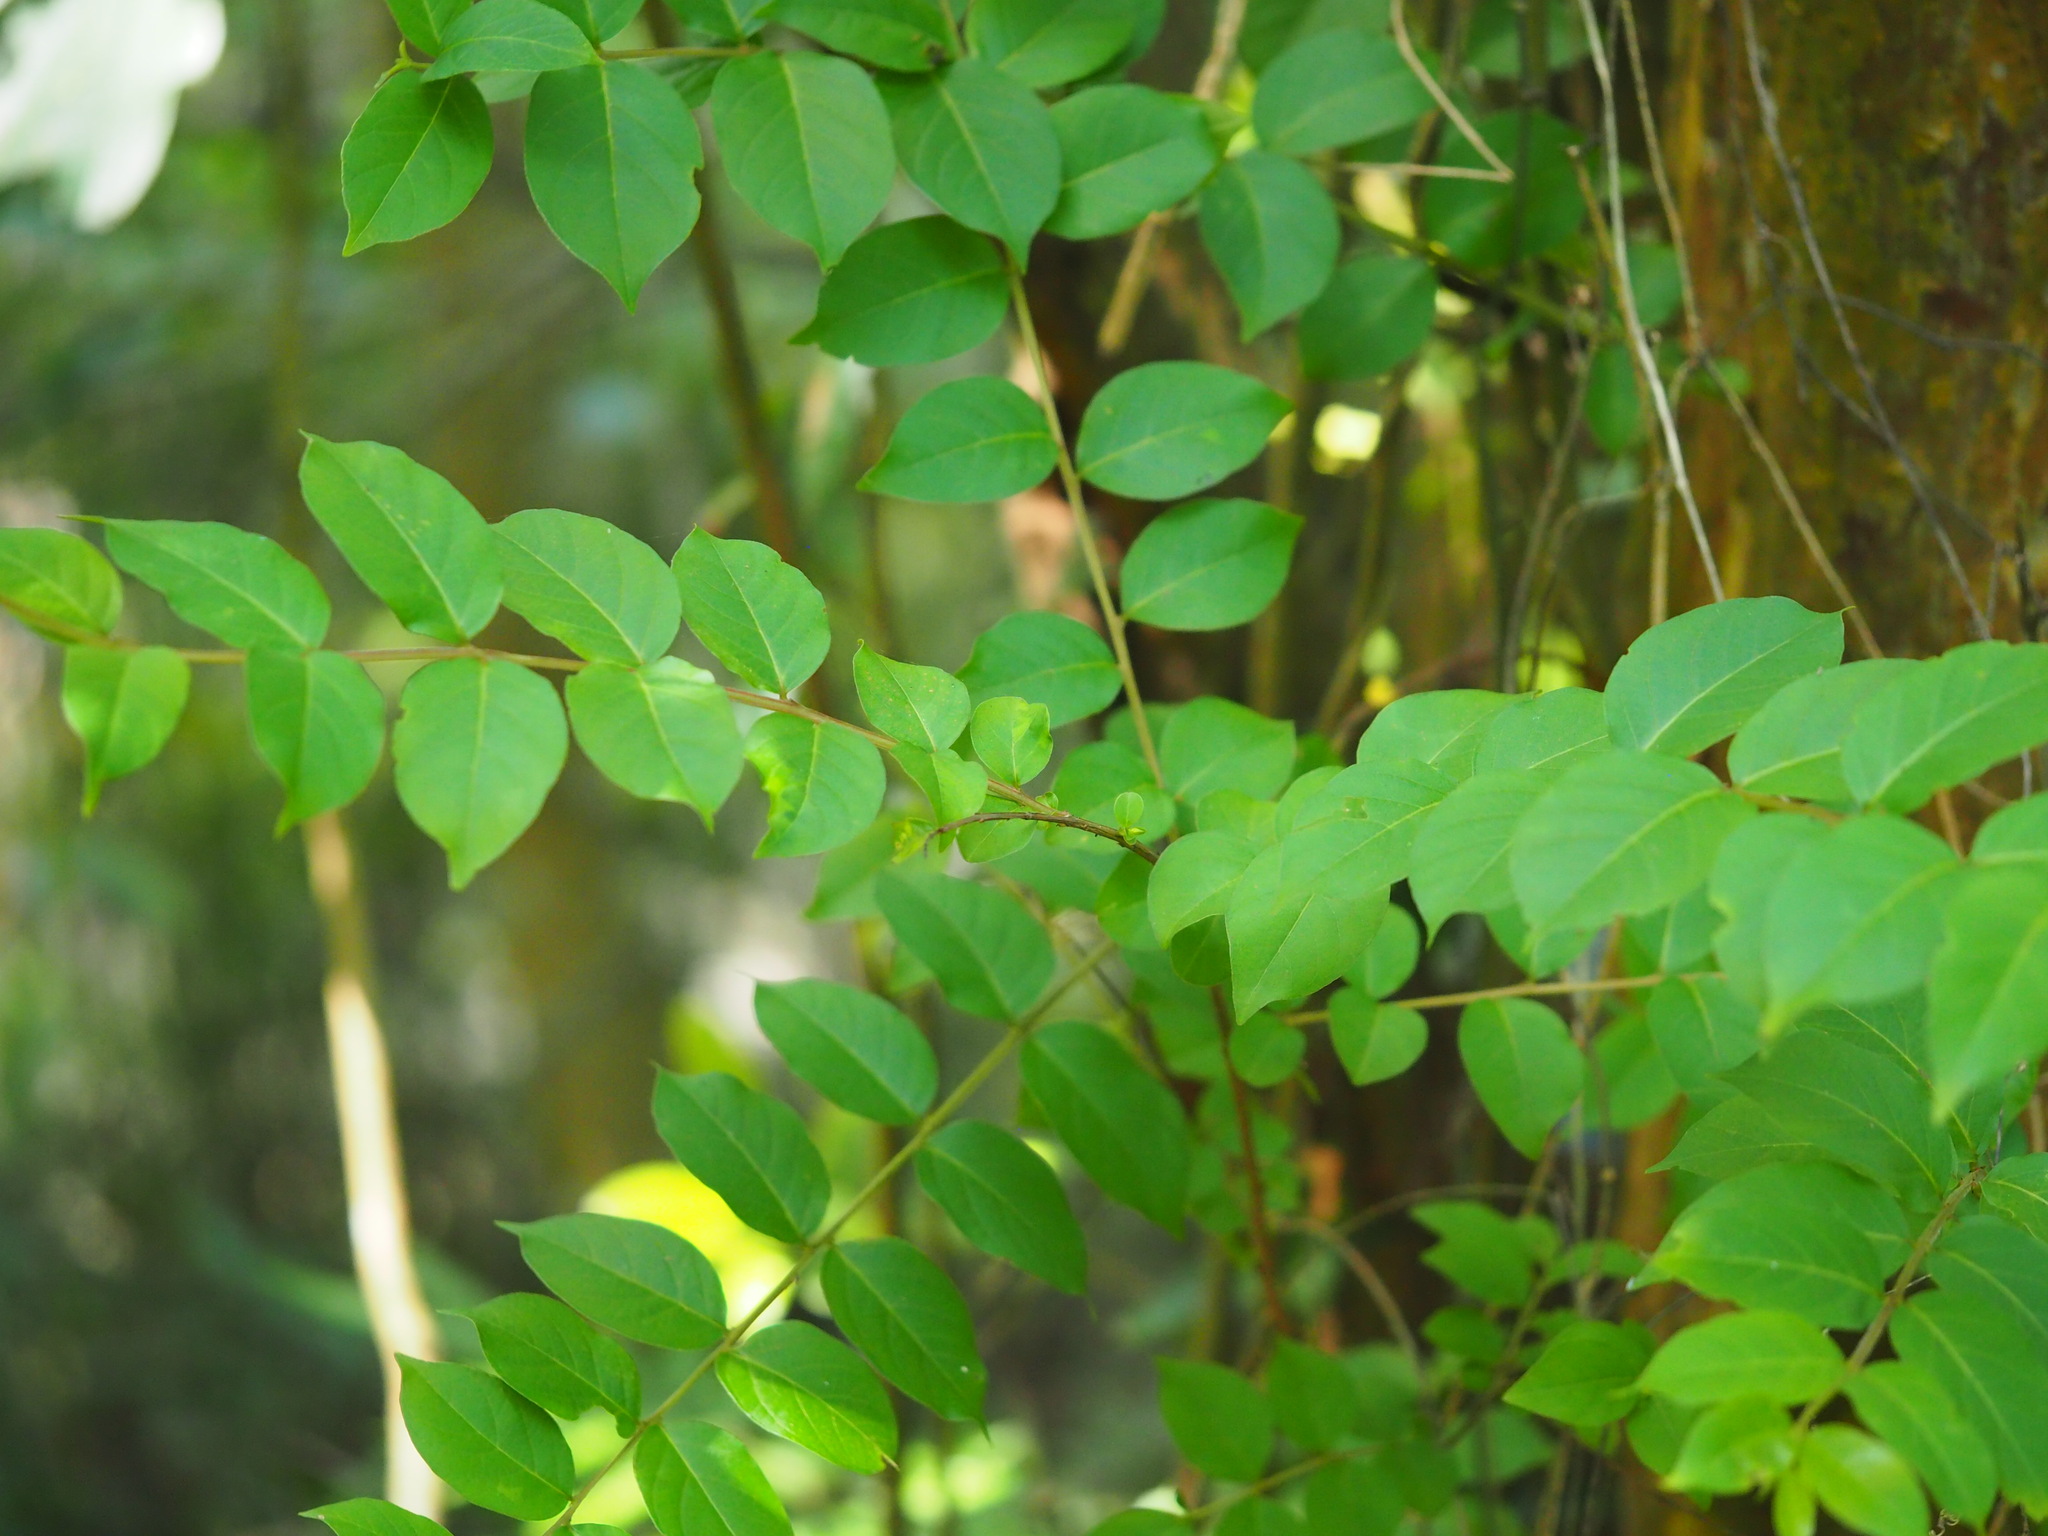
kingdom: Plantae
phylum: Tracheophyta
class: Magnoliopsida
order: Myrtales
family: Lythraceae
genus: Lagerstroemia
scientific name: Lagerstroemia subcostata
